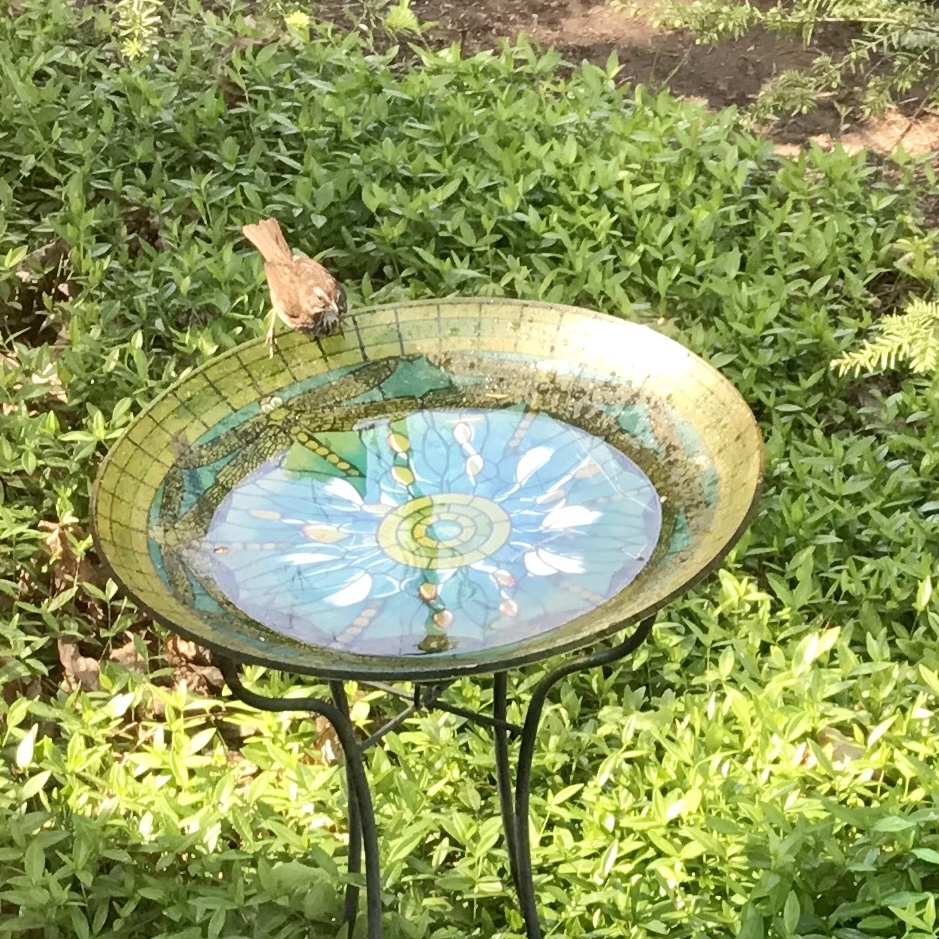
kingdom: Animalia
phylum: Chordata
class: Aves
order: Passeriformes
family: Passerellidae
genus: Melospiza
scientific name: Melospiza melodia
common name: Song sparrow
